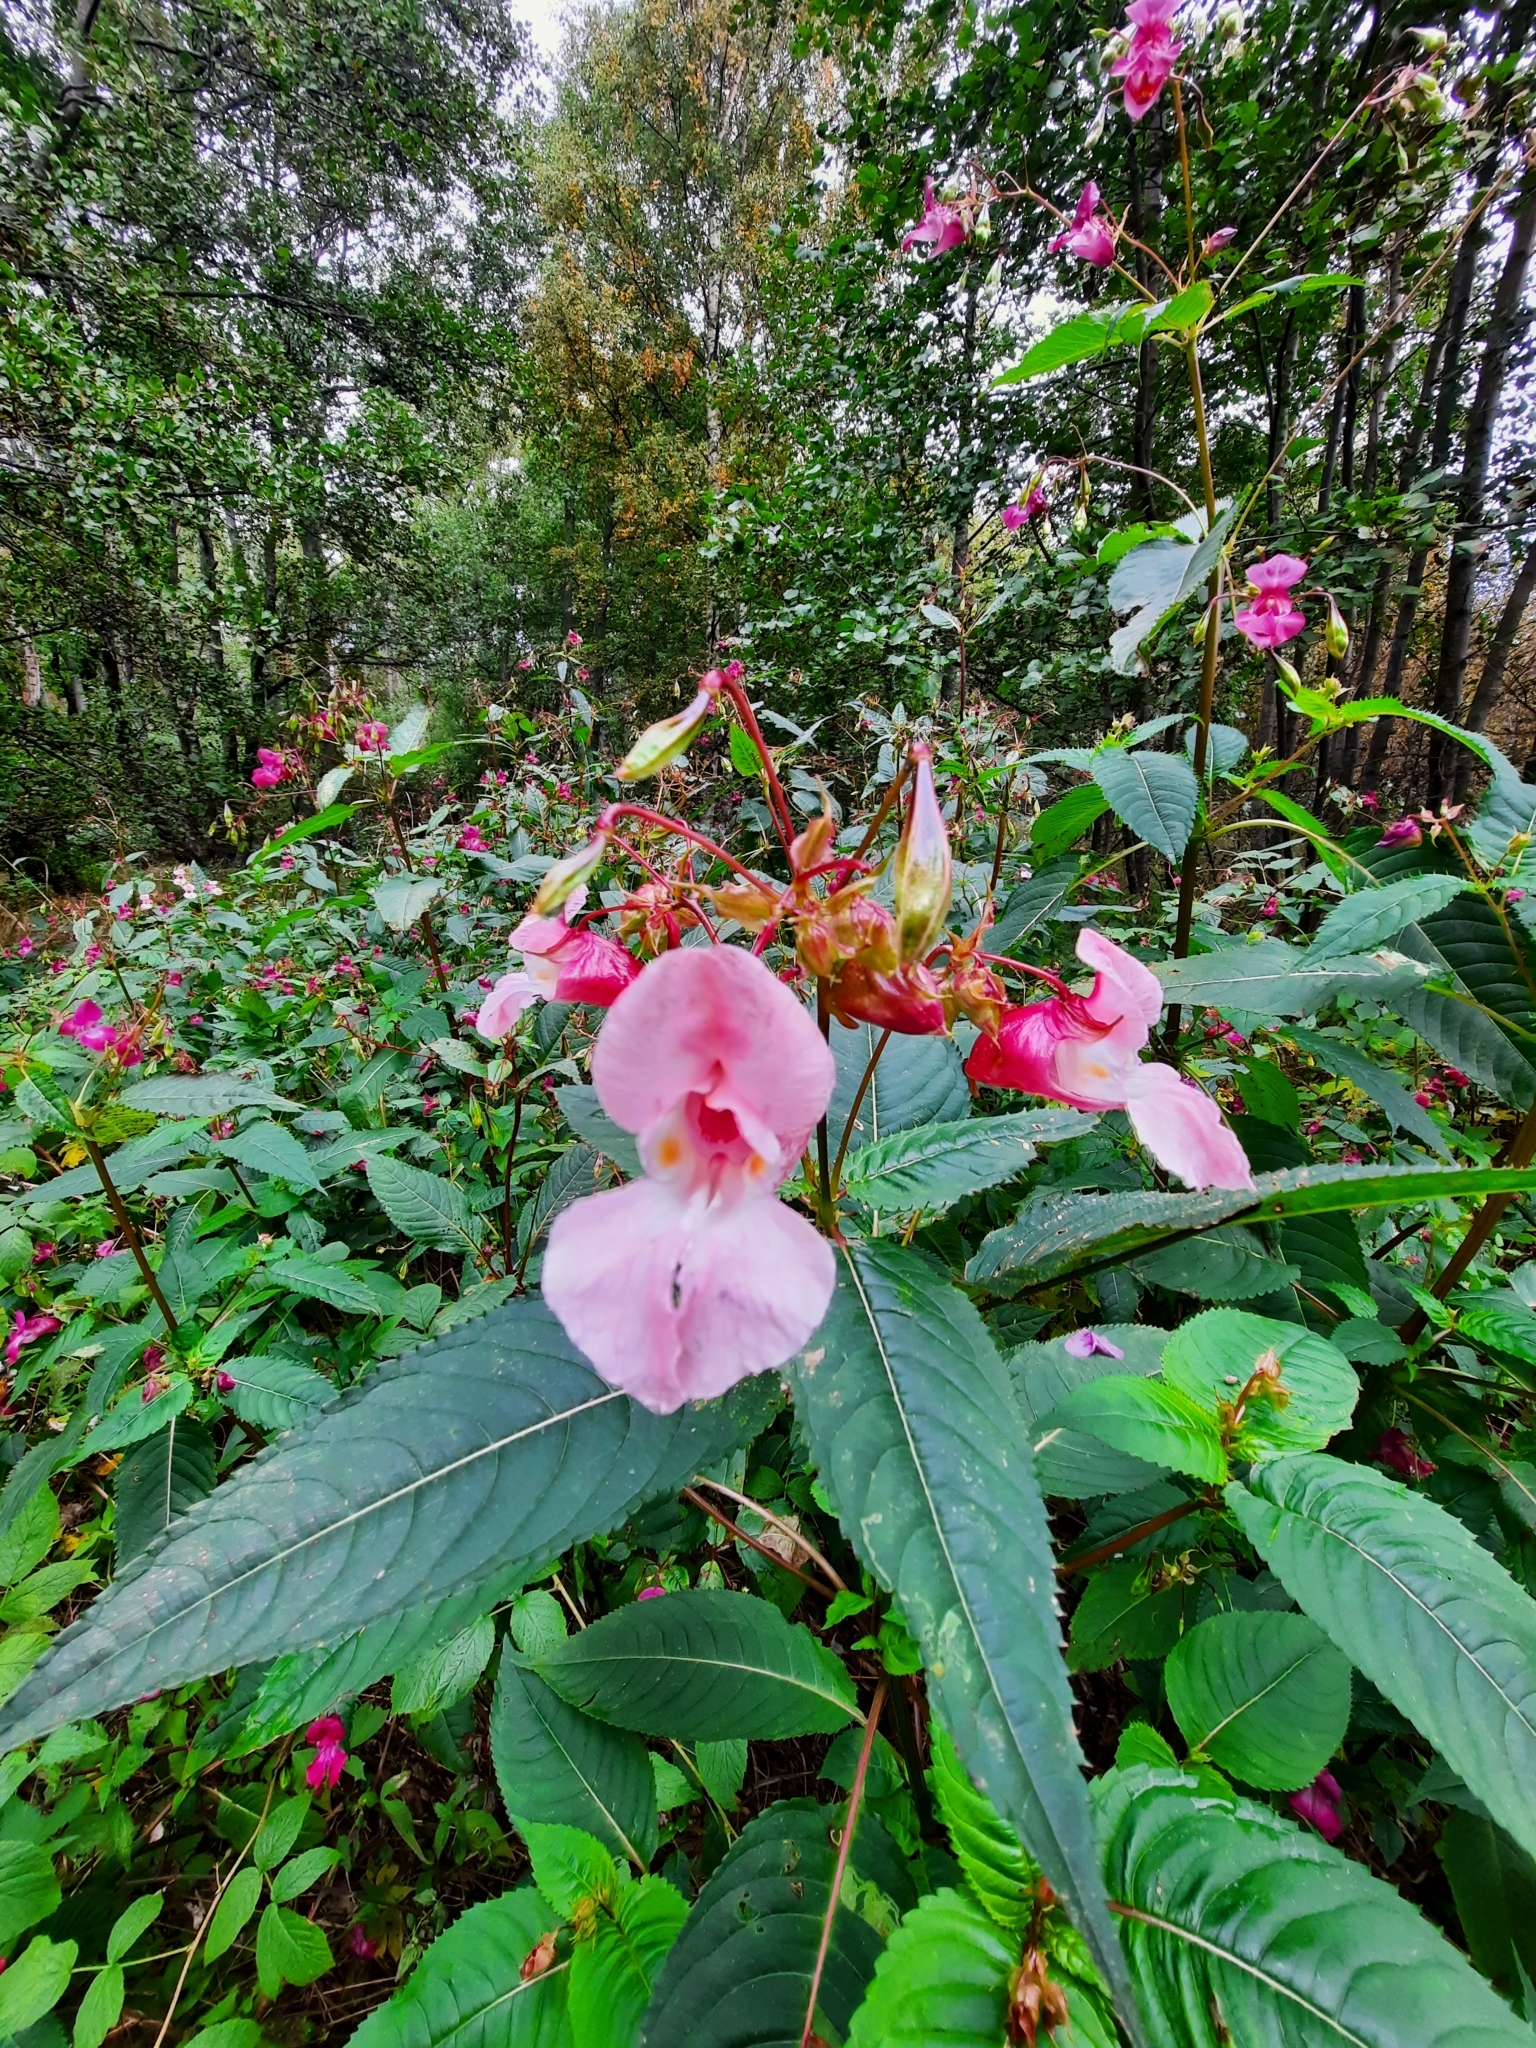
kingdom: Plantae
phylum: Tracheophyta
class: Magnoliopsida
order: Ericales
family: Balsaminaceae
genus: Impatiens
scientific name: Impatiens glandulifera
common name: Himalayan balsam
